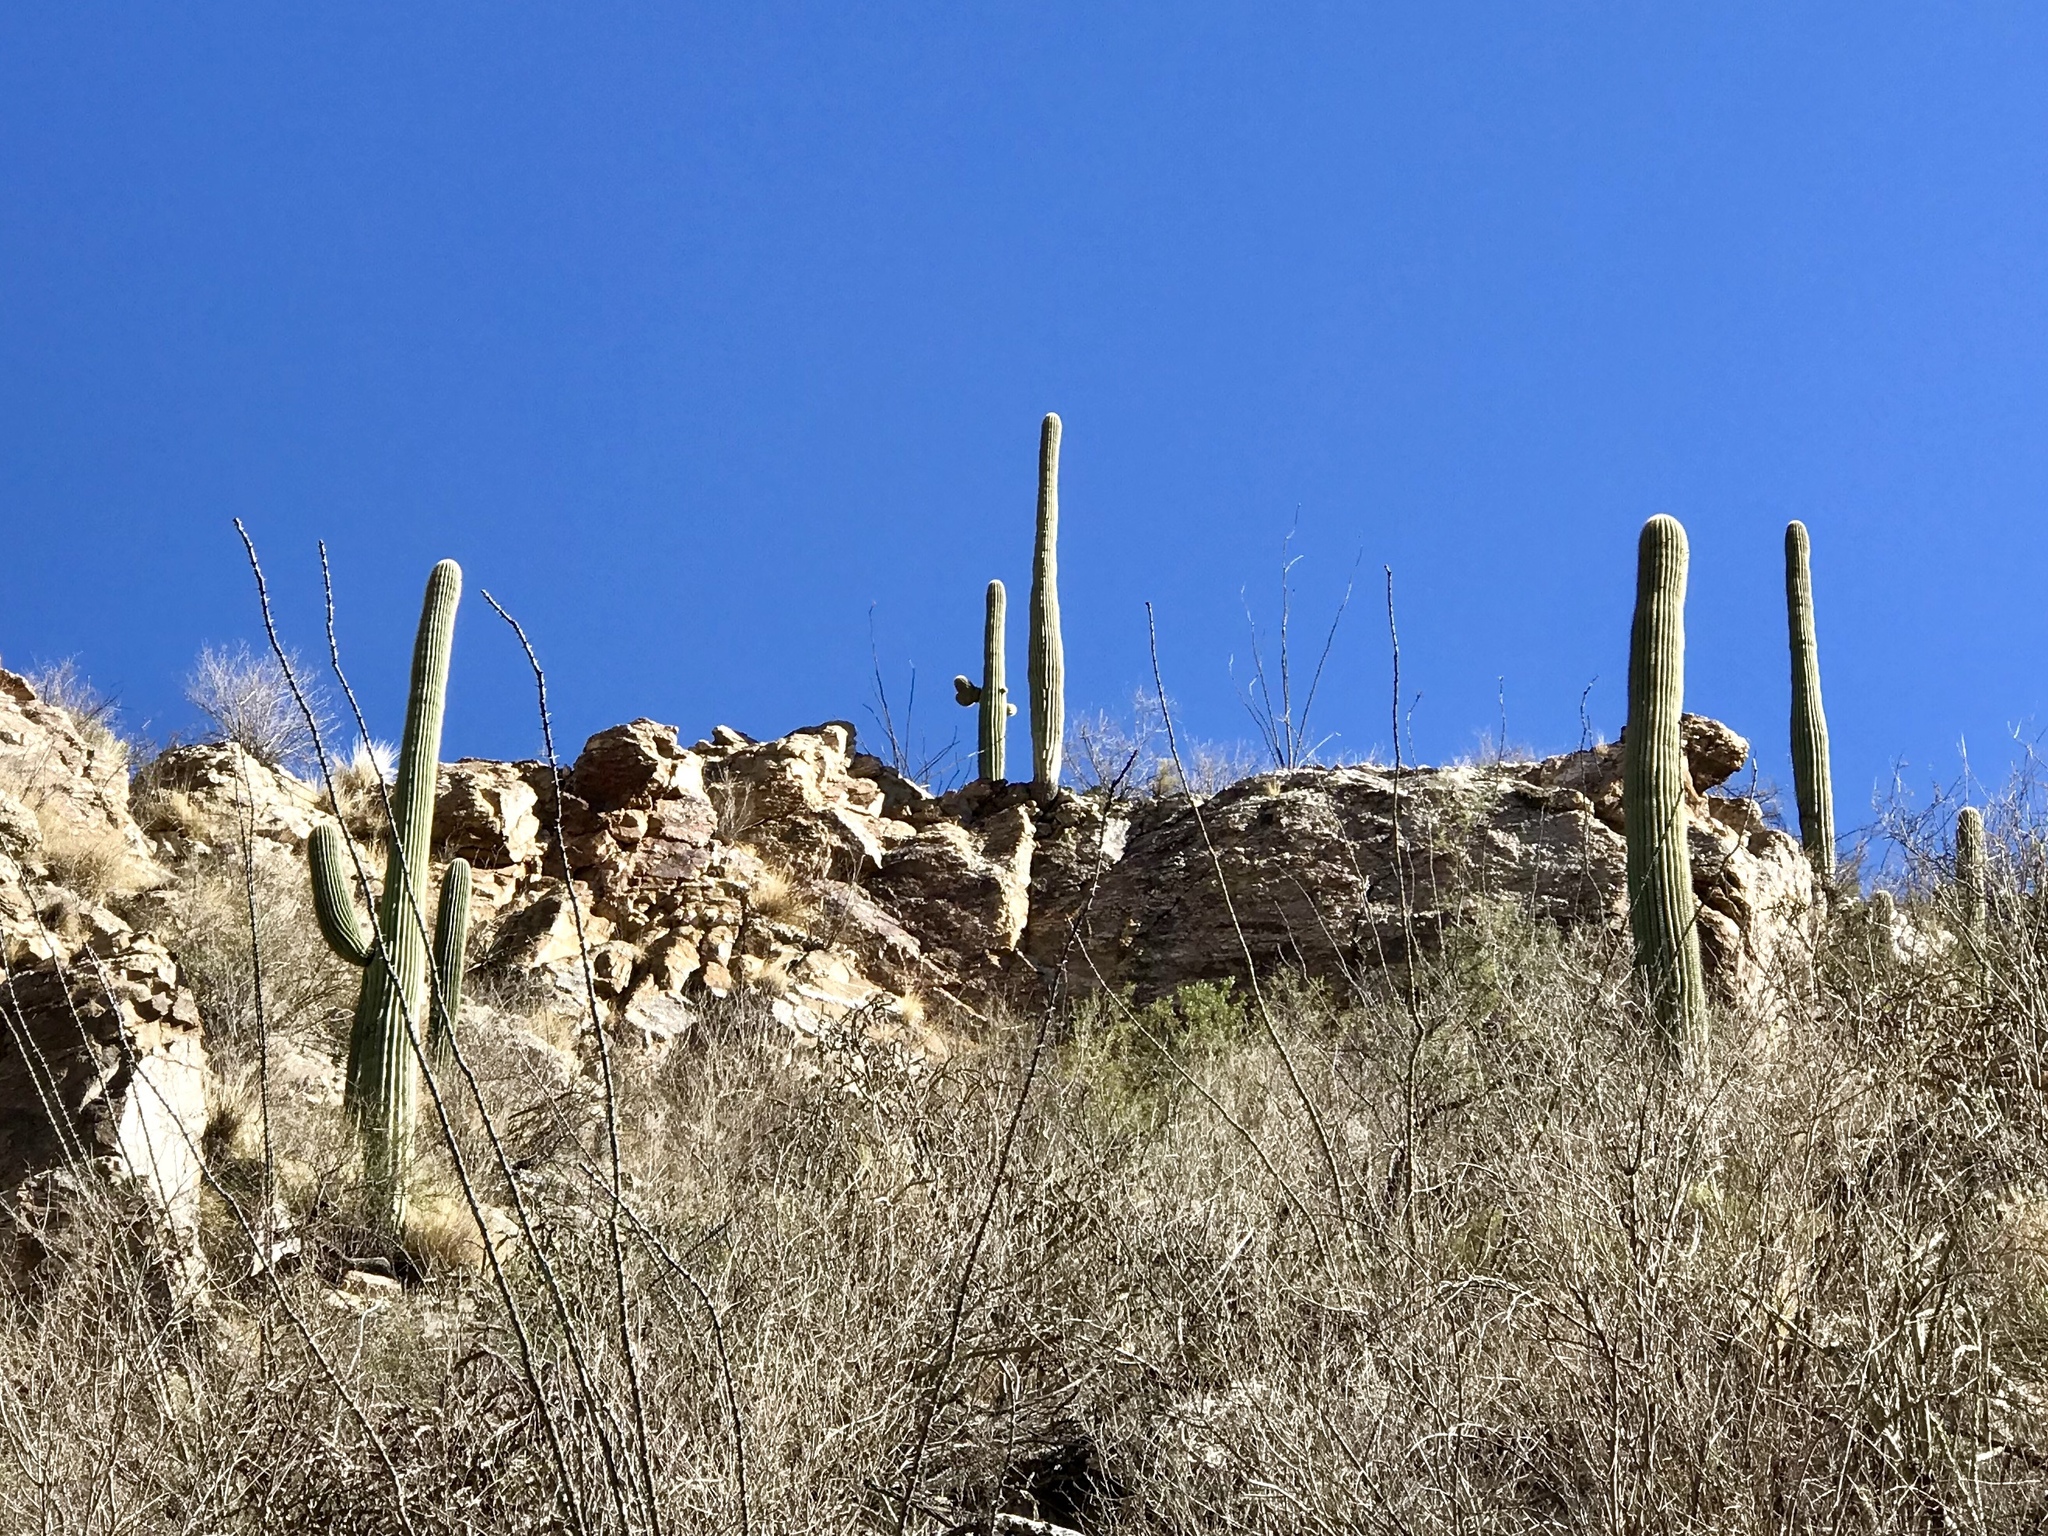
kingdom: Plantae
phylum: Tracheophyta
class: Magnoliopsida
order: Caryophyllales
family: Cactaceae
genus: Carnegiea
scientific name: Carnegiea gigantea
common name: Saguaro
